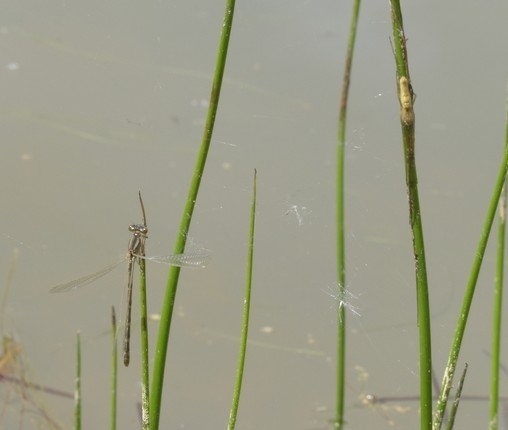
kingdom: Animalia
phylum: Arthropoda
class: Insecta
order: Odonata
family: Coenagrionidae
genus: Enallagma
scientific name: Enallagma cyathigerum
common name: Common blue damselfly
